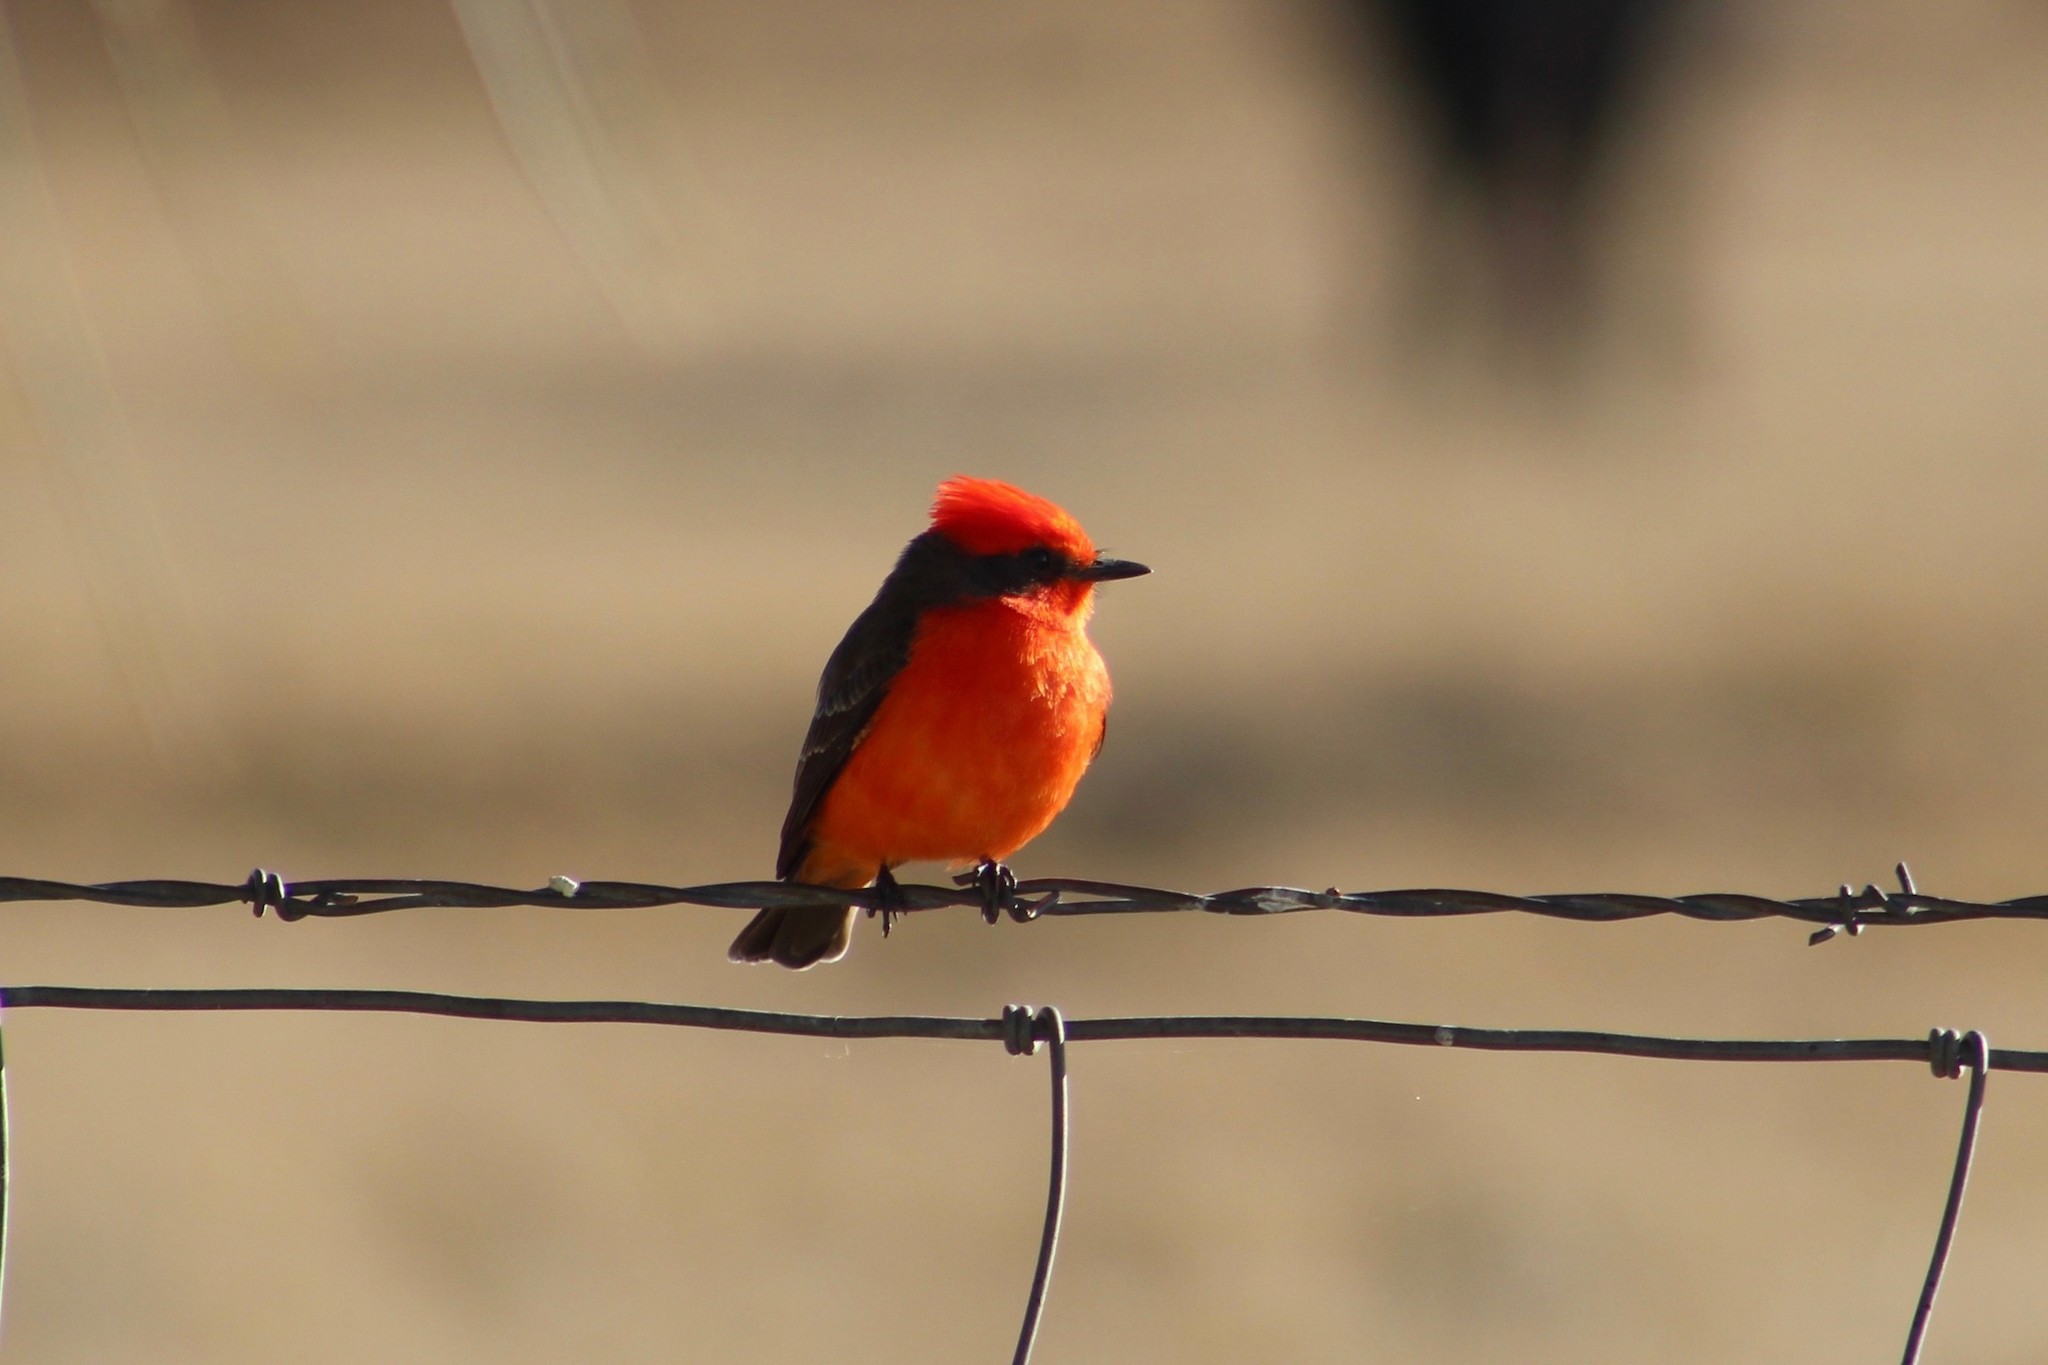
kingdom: Animalia
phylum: Chordata
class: Aves
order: Passeriformes
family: Tyrannidae
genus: Pyrocephalus
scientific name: Pyrocephalus rubinus
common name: Vermilion flycatcher
